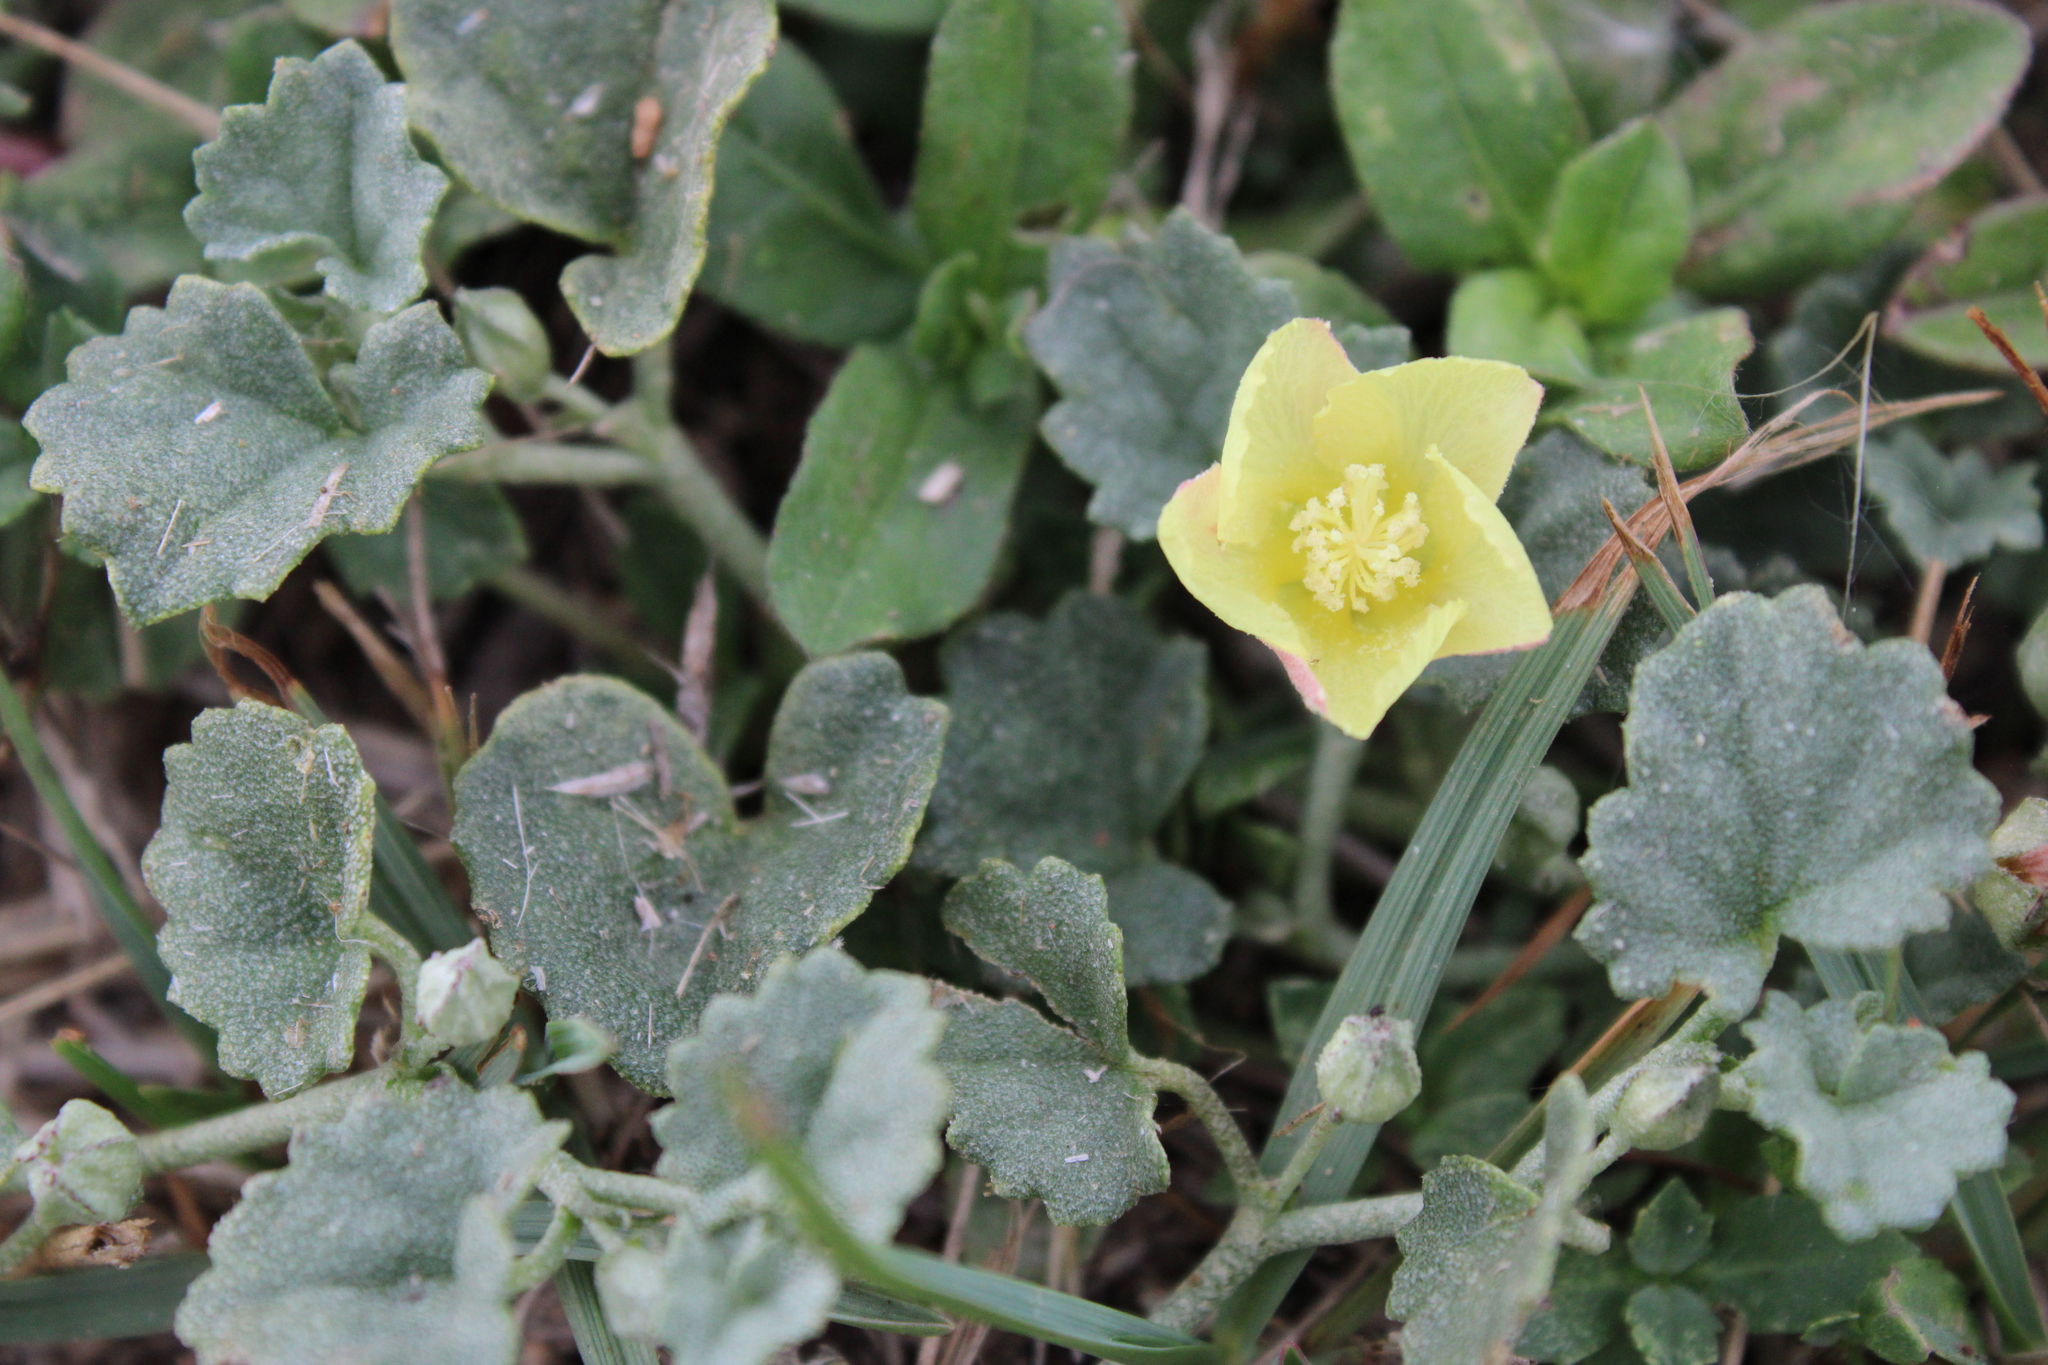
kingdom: Plantae
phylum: Tracheophyta
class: Magnoliopsida
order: Malvales
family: Malvaceae
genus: Malvella
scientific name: Malvella leprosa
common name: Alkali-mallow
